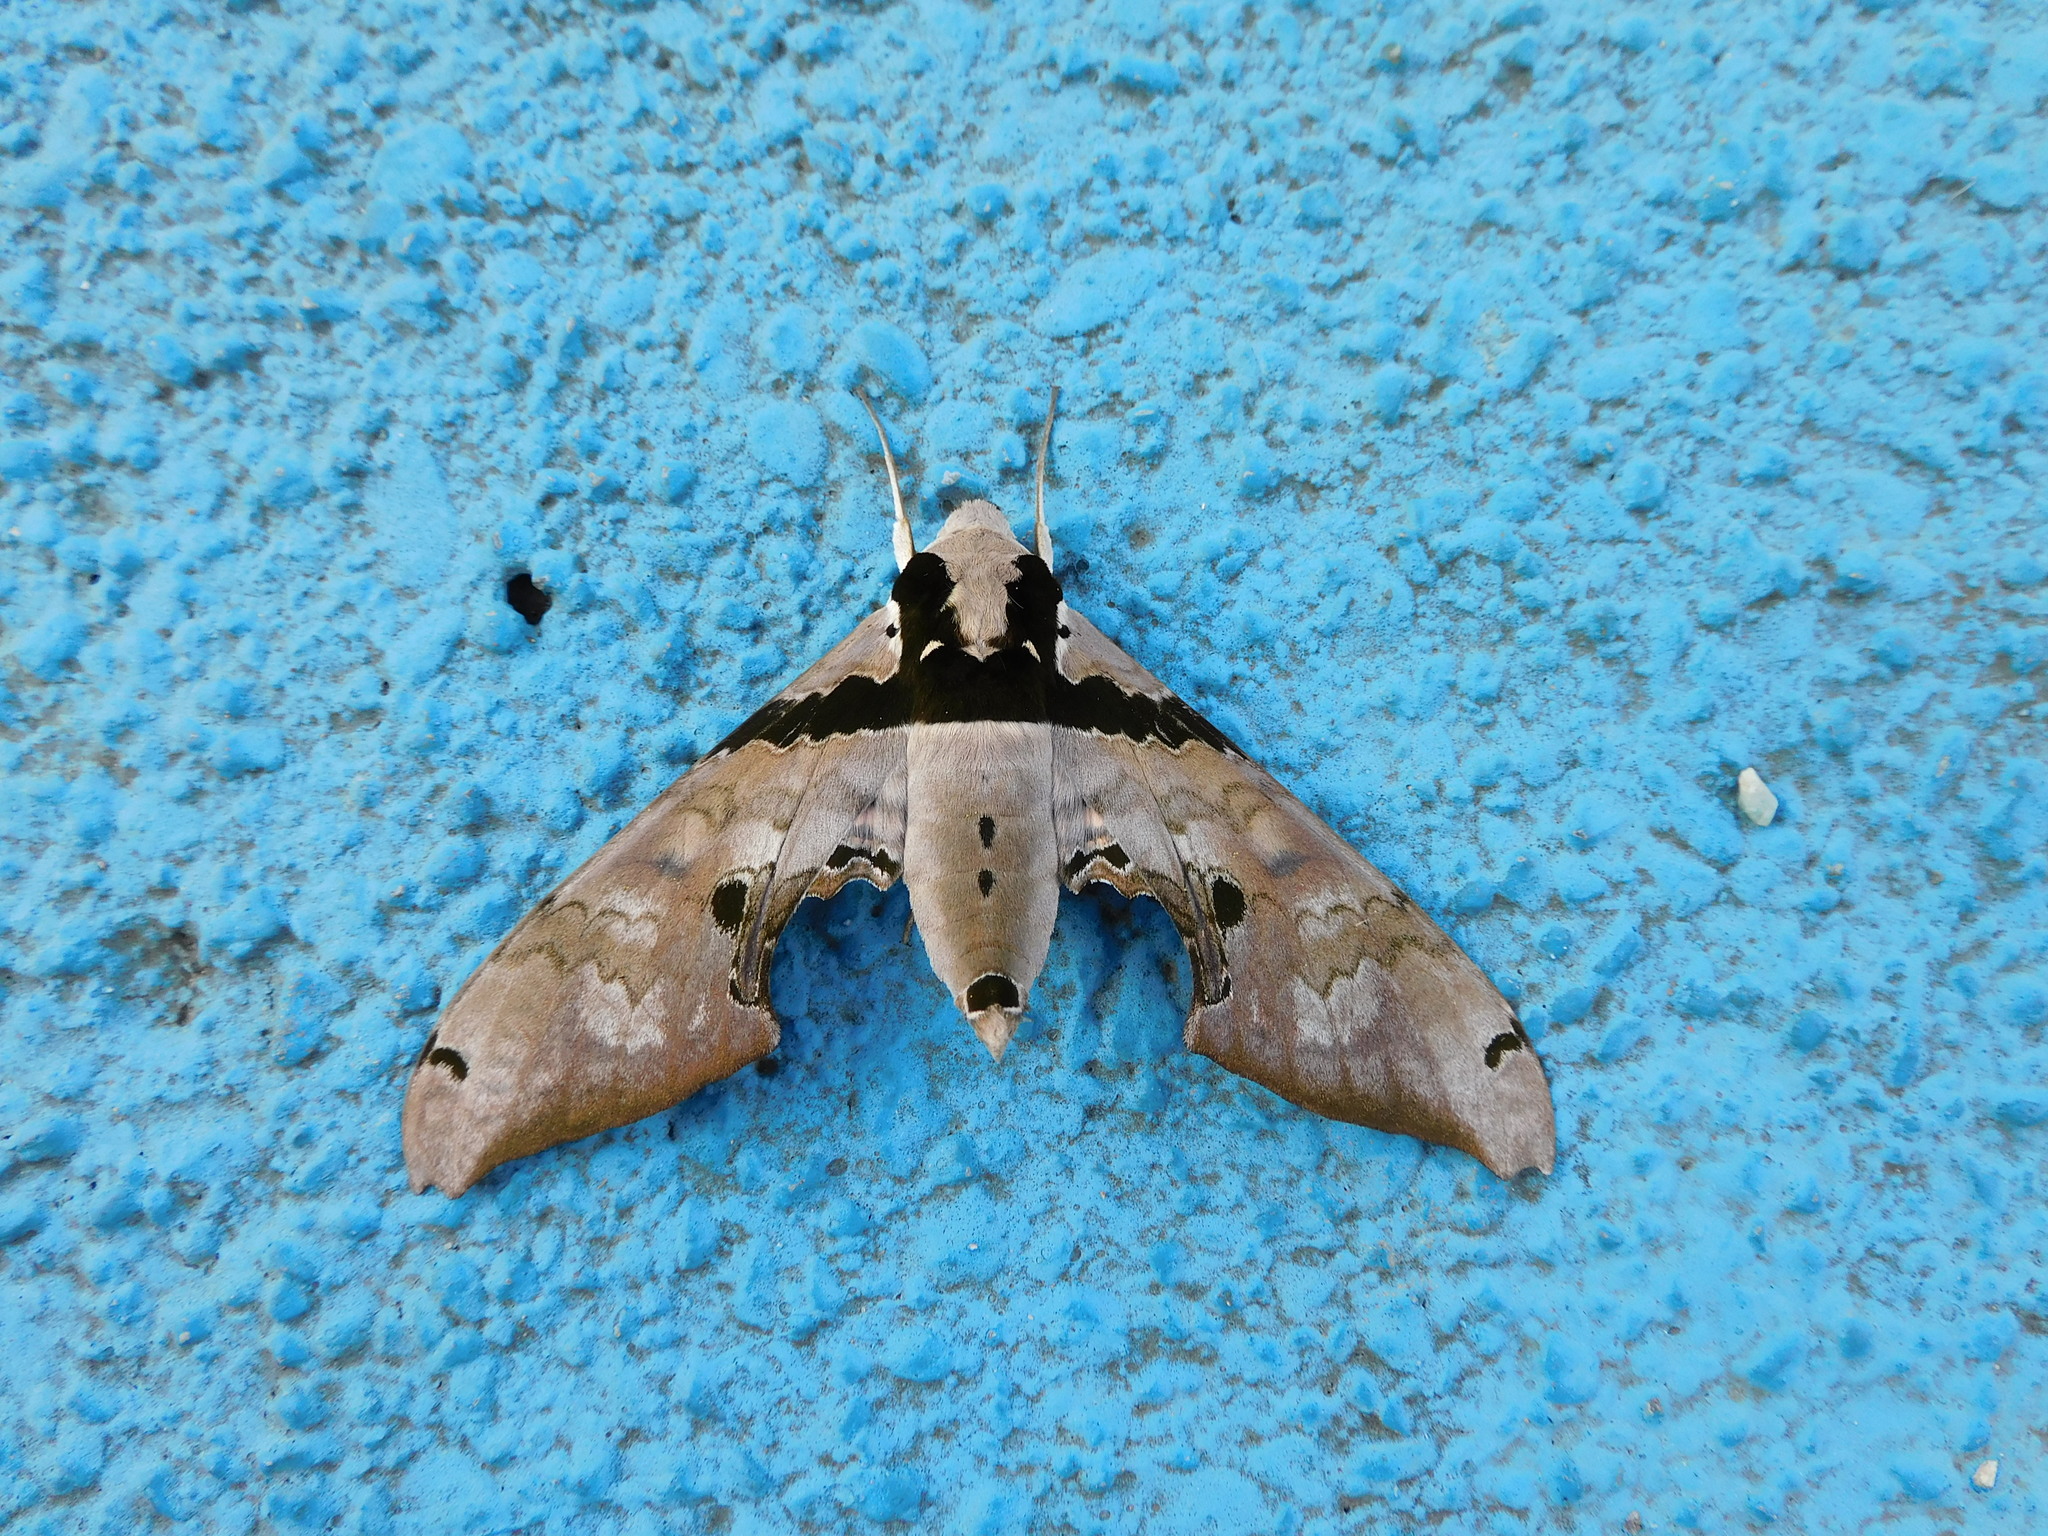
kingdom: Animalia
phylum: Arthropoda
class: Insecta
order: Lepidoptera
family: Sphingidae
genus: Adhemarius
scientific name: Adhemarius gannascus
